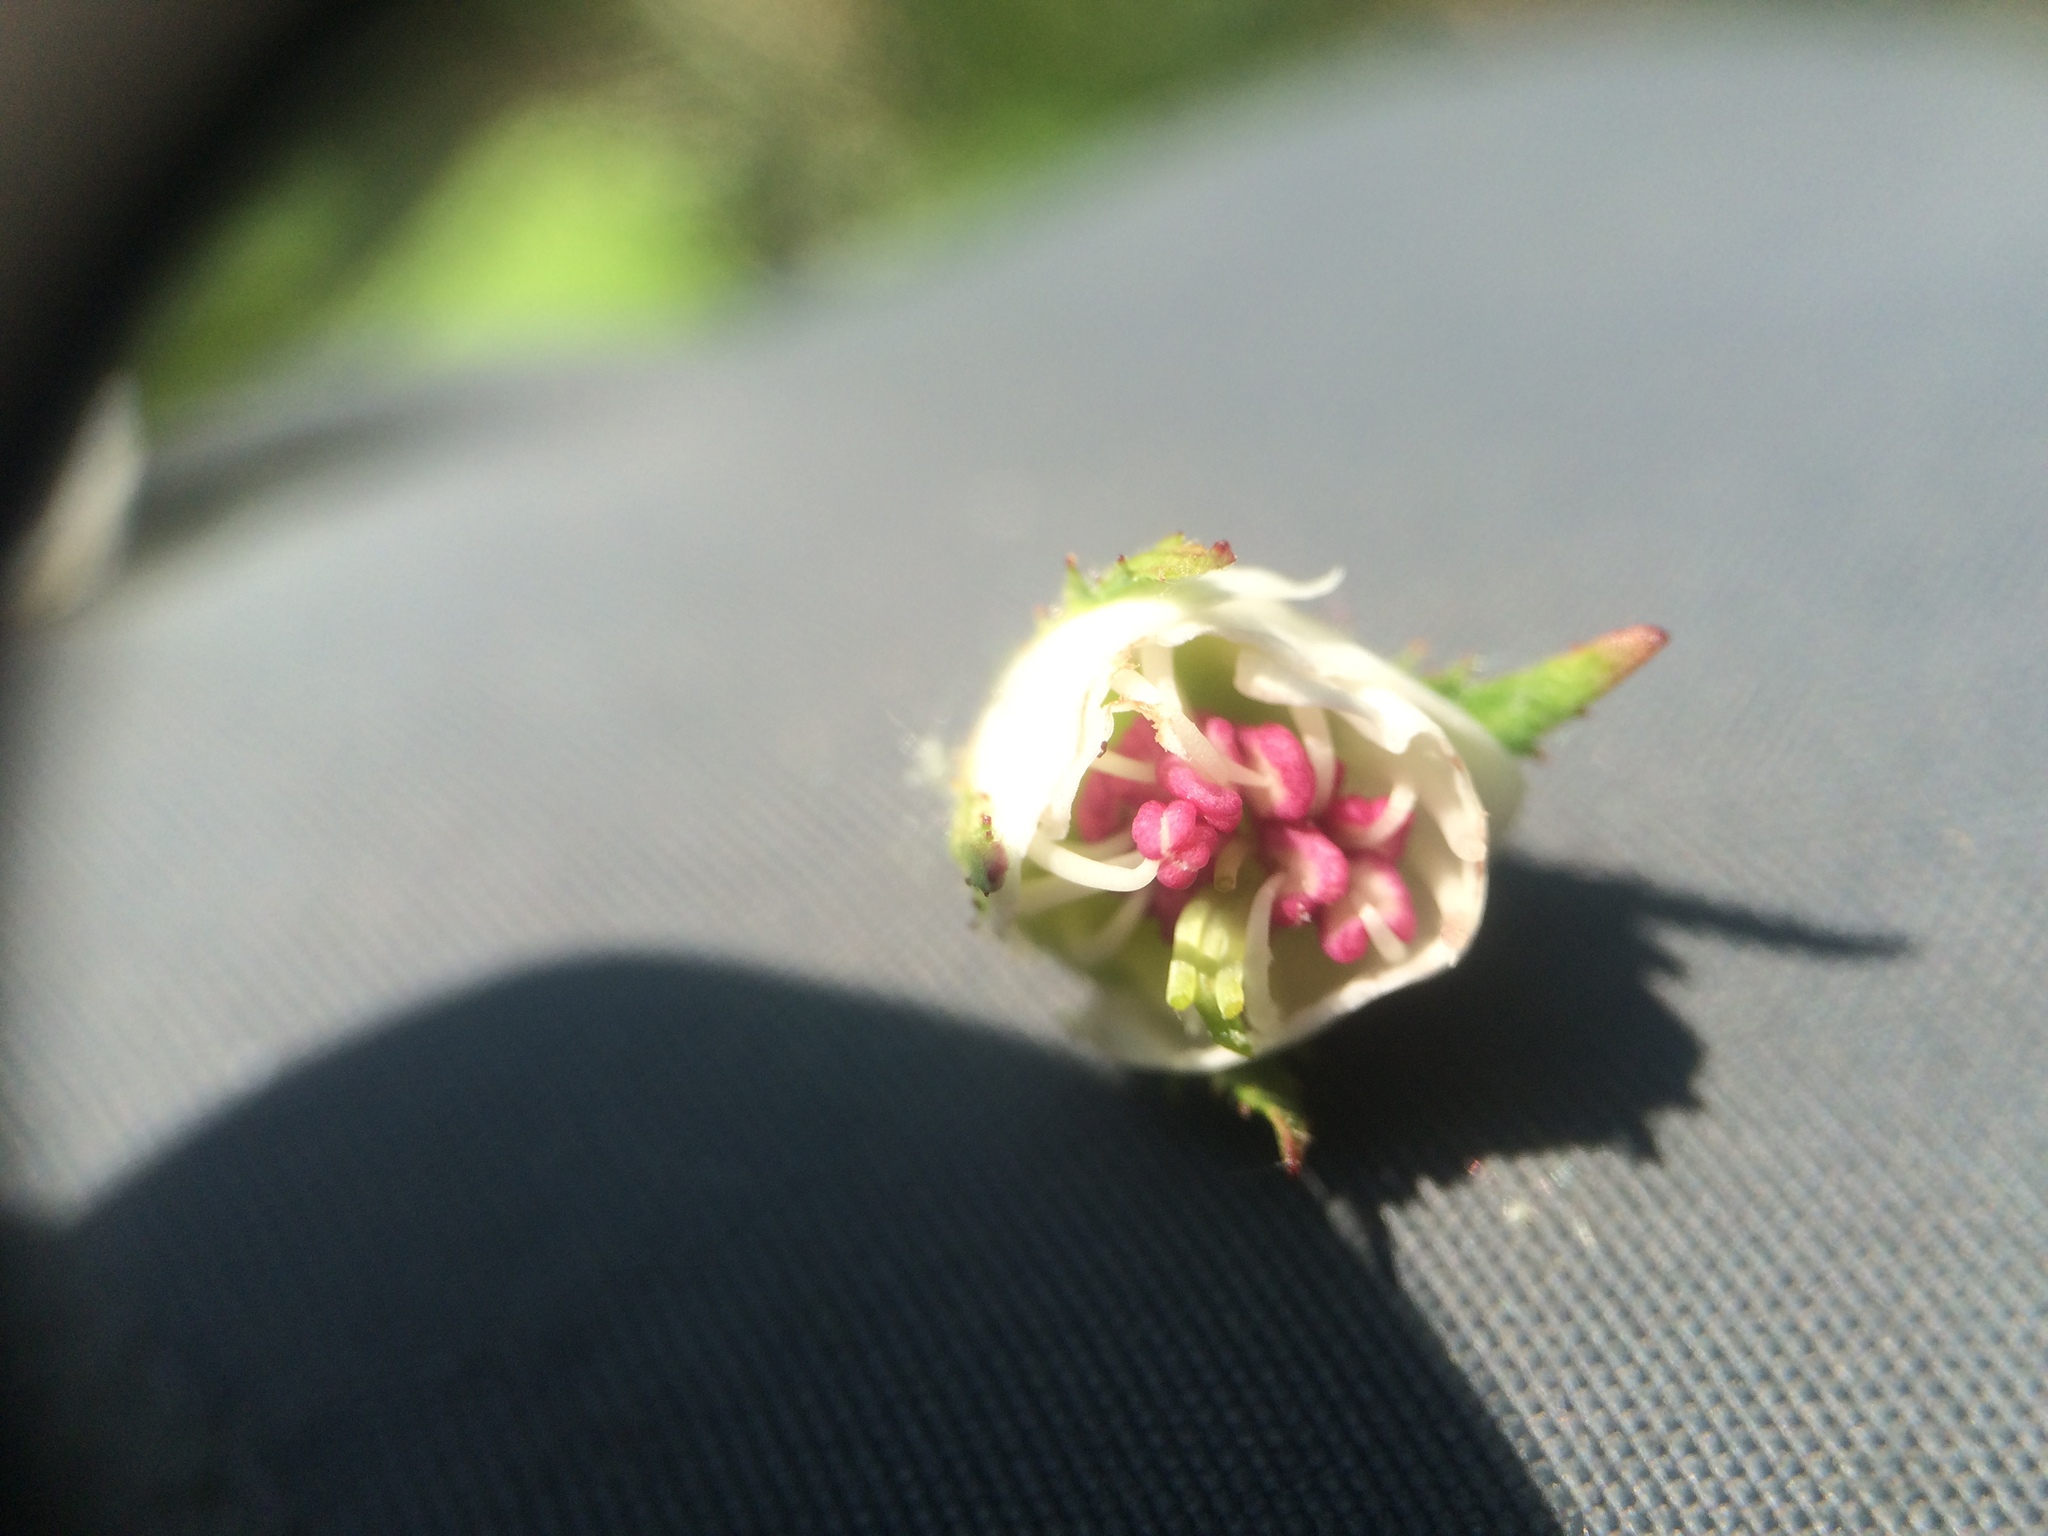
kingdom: Plantae
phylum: Tracheophyta
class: Magnoliopsida
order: Rosales
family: Rosaceae
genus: Crataegus
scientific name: Crataegus coccinioides
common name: Large-flowered cockspurthorn
